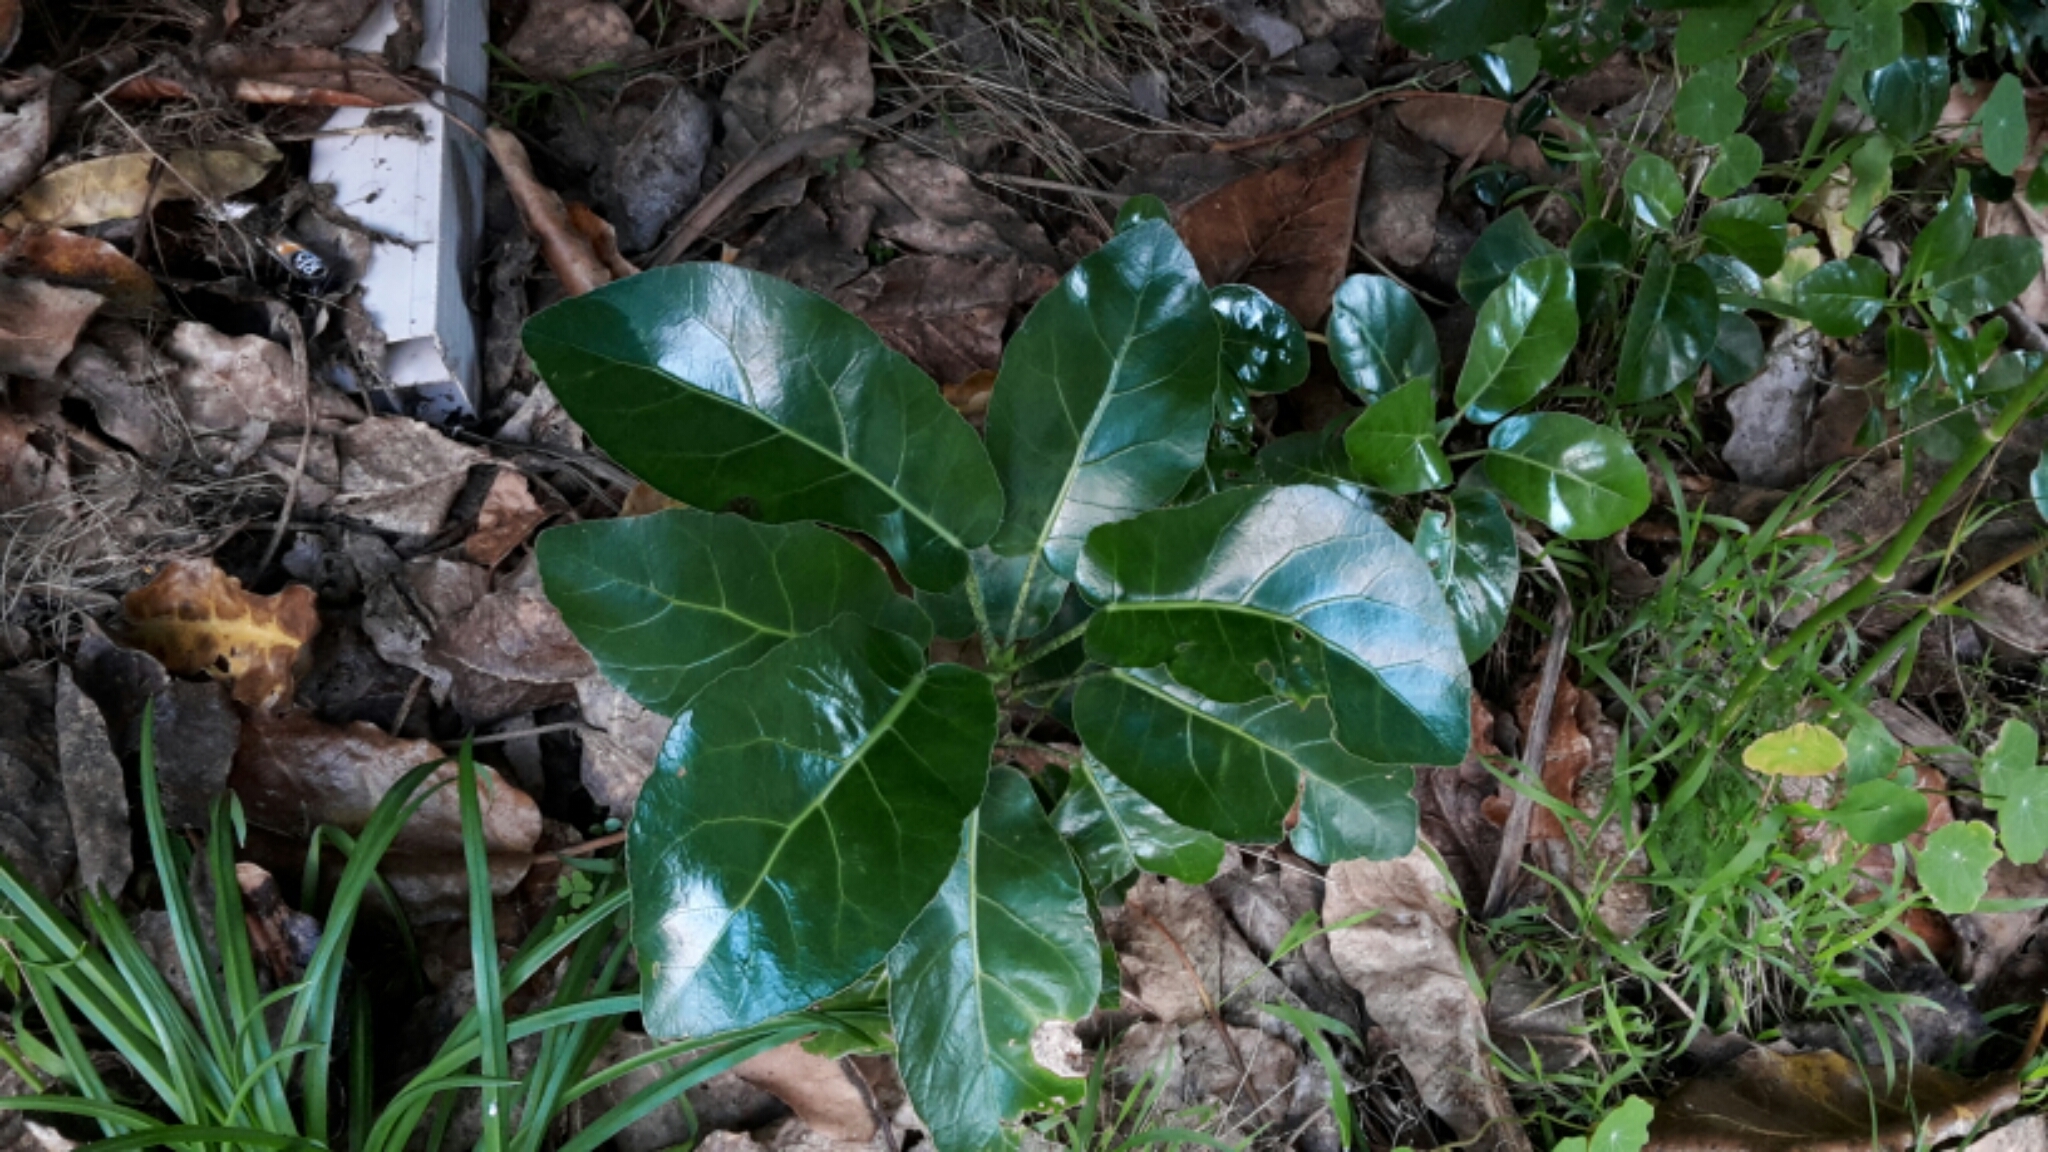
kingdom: Plantae
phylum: Tracheophyta
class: Magnoliopsida
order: Apiales
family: Araliaceae
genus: Meryta
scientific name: Meryta sinclairii
